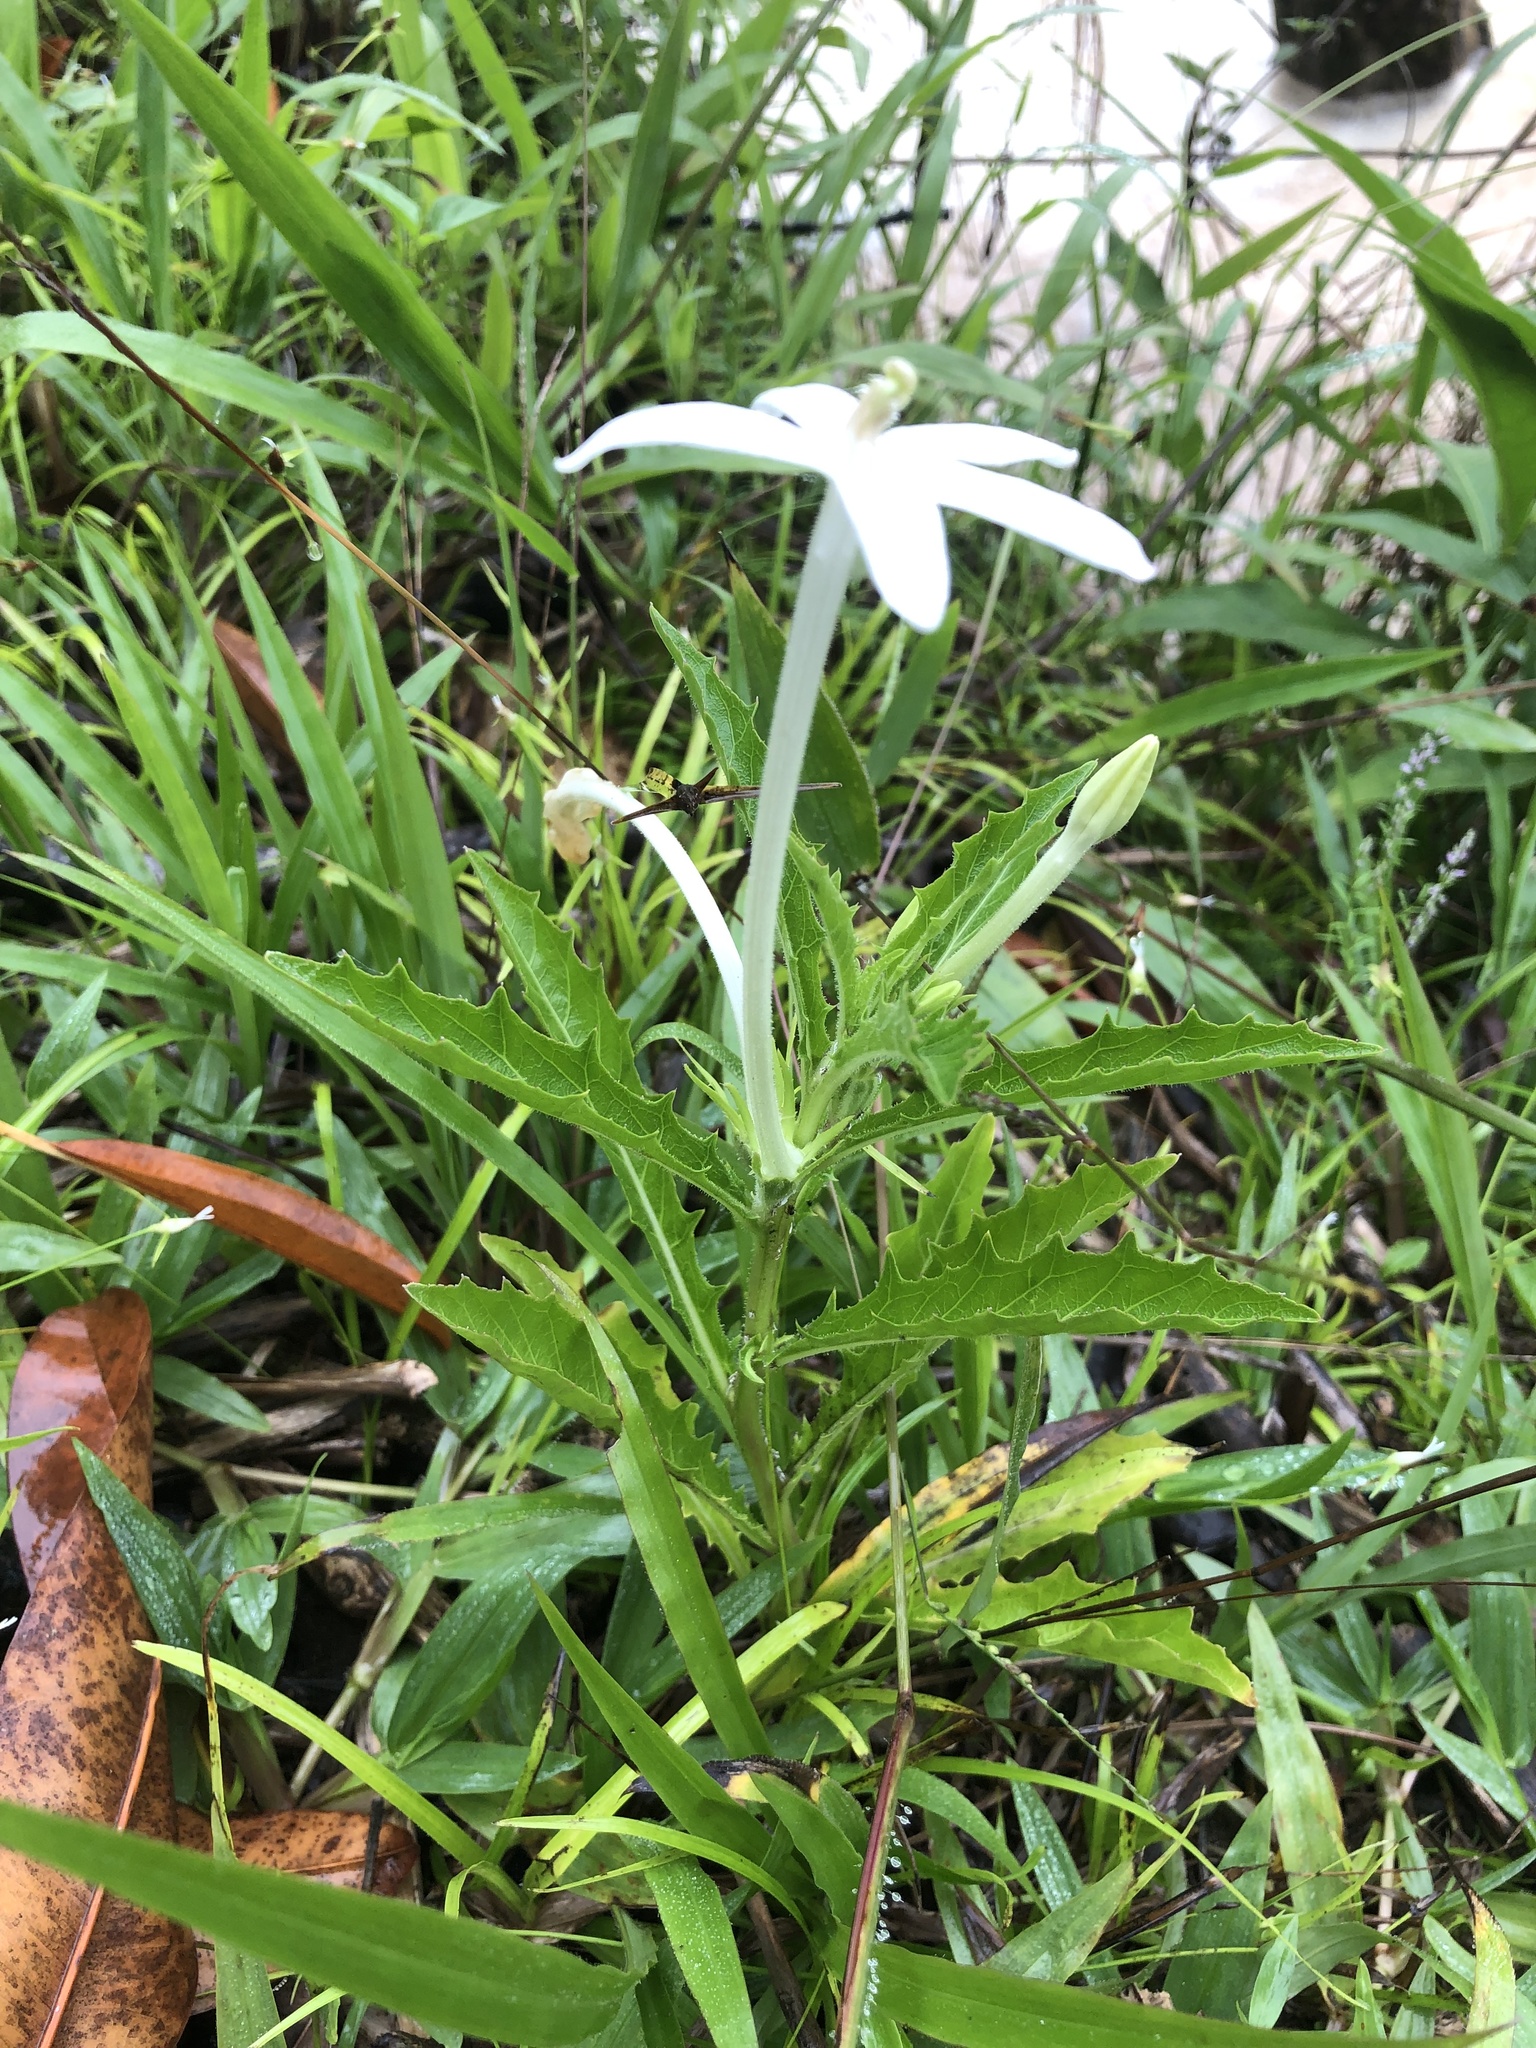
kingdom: Plantae
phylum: Tracheophyta
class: Magnoliopsida
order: Asterales
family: Campanulaceae
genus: Hippobroma
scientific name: Hippobroma longiflora
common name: Madamfate
